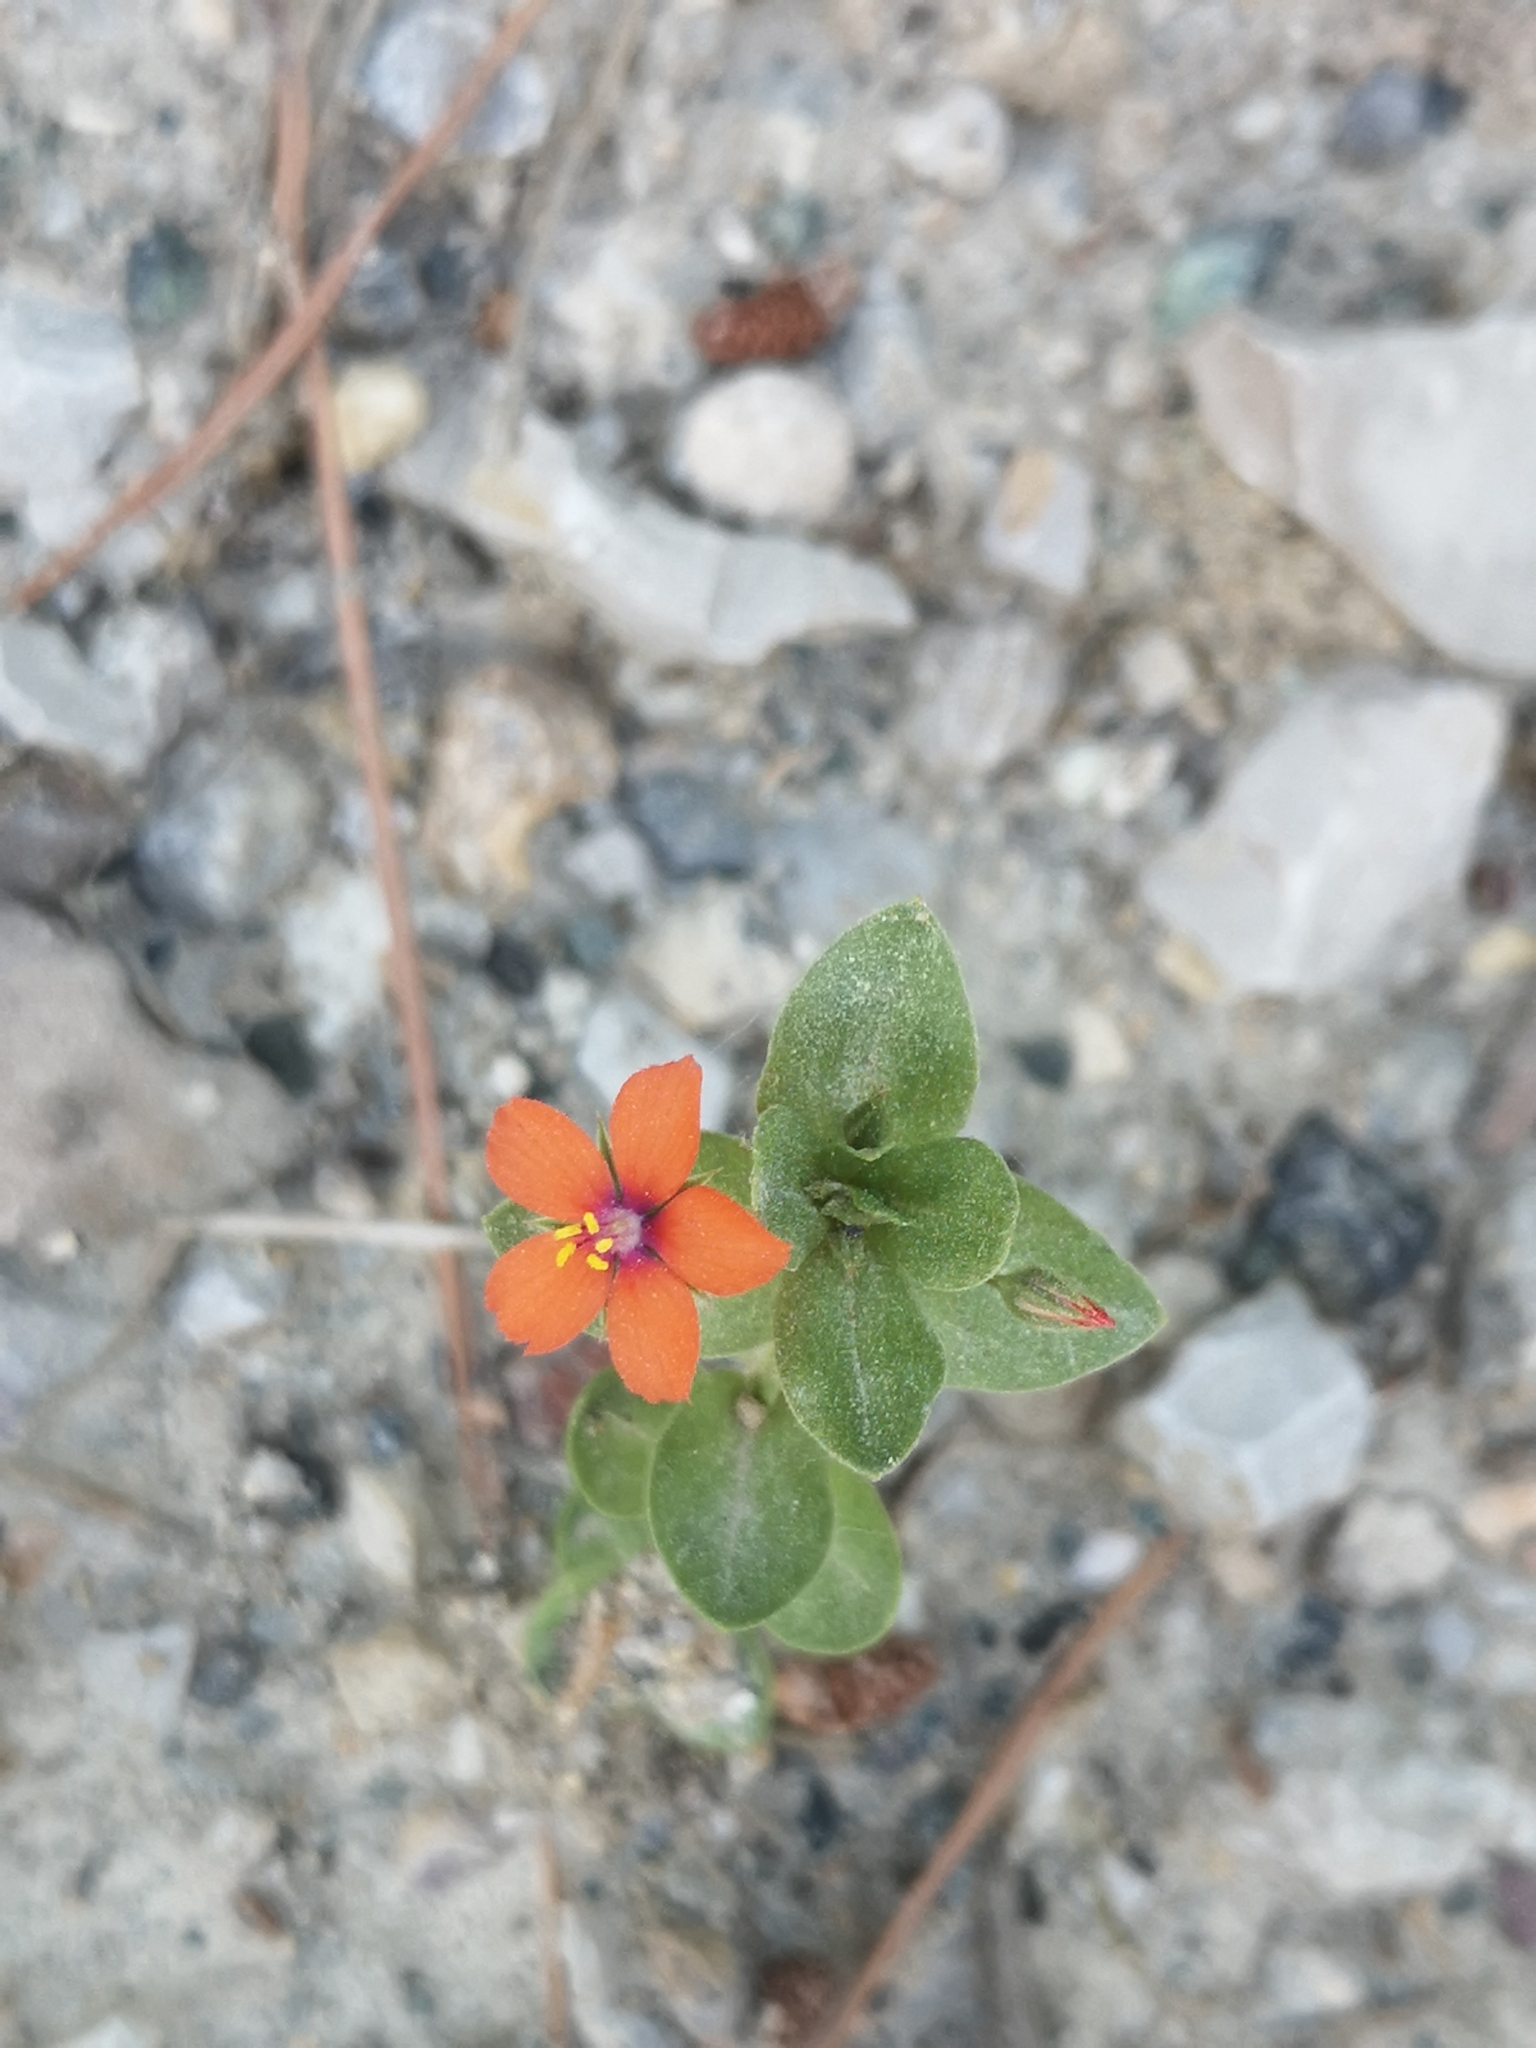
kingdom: Plantae
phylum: Tracheophyta
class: Magnoliopsida
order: Ericales
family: Primulaceae
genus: Lysimachia
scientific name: Lysimachia arvensis
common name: Scarlet pimpernel
